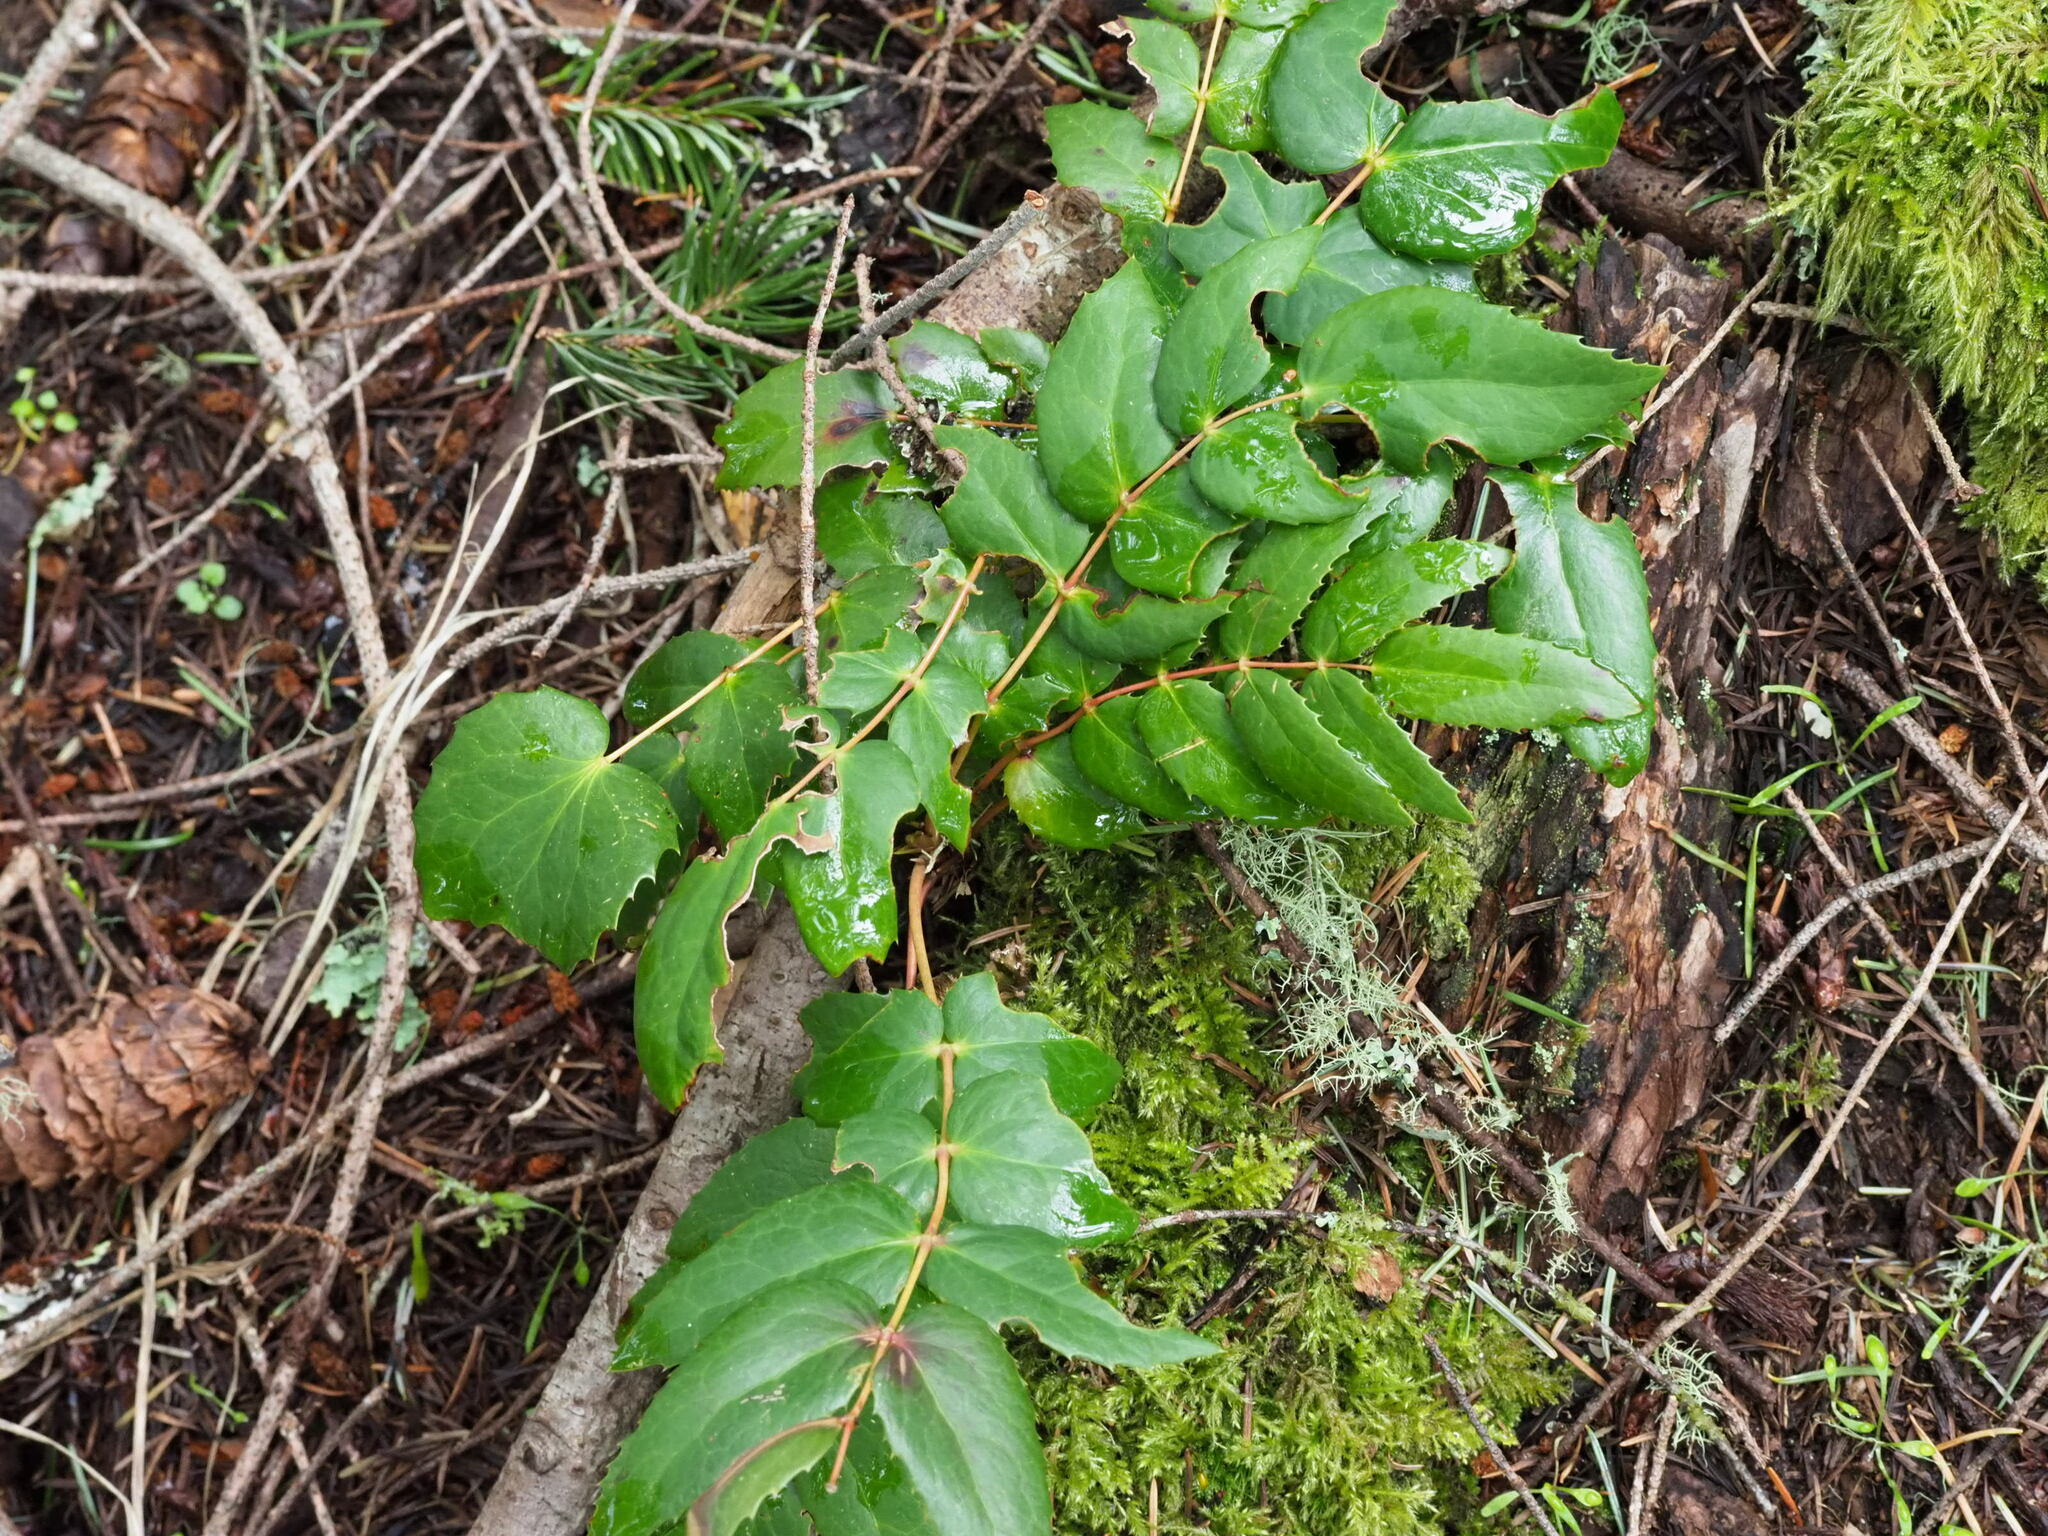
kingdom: Plantae
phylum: Tracheophyta
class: Magnoliopsida
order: Ranunculales
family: Berberidaceae
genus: Mahonia
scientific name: Mahonia nervosa
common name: Cascade oregon-grape
